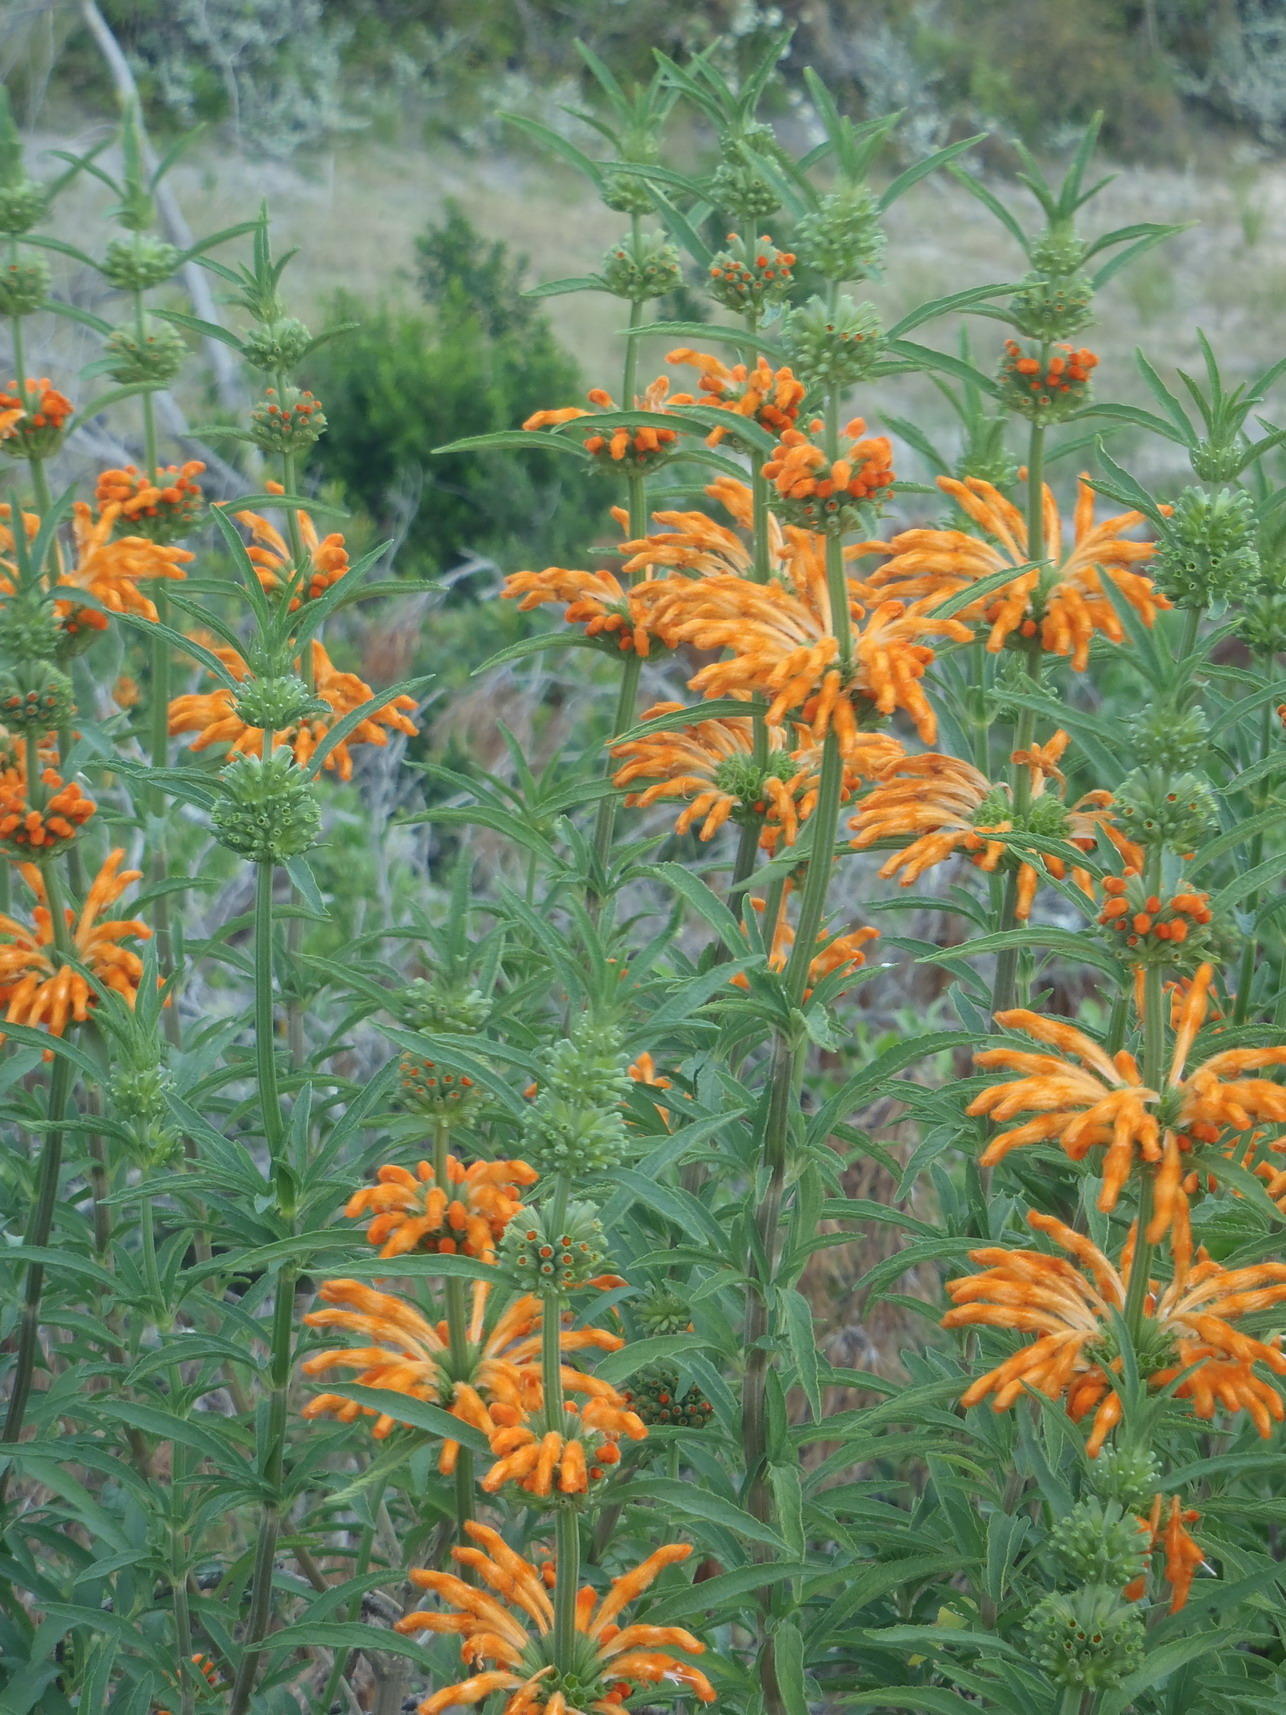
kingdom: Plantae
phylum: Tracheophyta
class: Magnoliopsida
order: Lamiales
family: Lamiaceae
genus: Leonotis
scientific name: Leonotis leonurus
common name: Lion's ear
